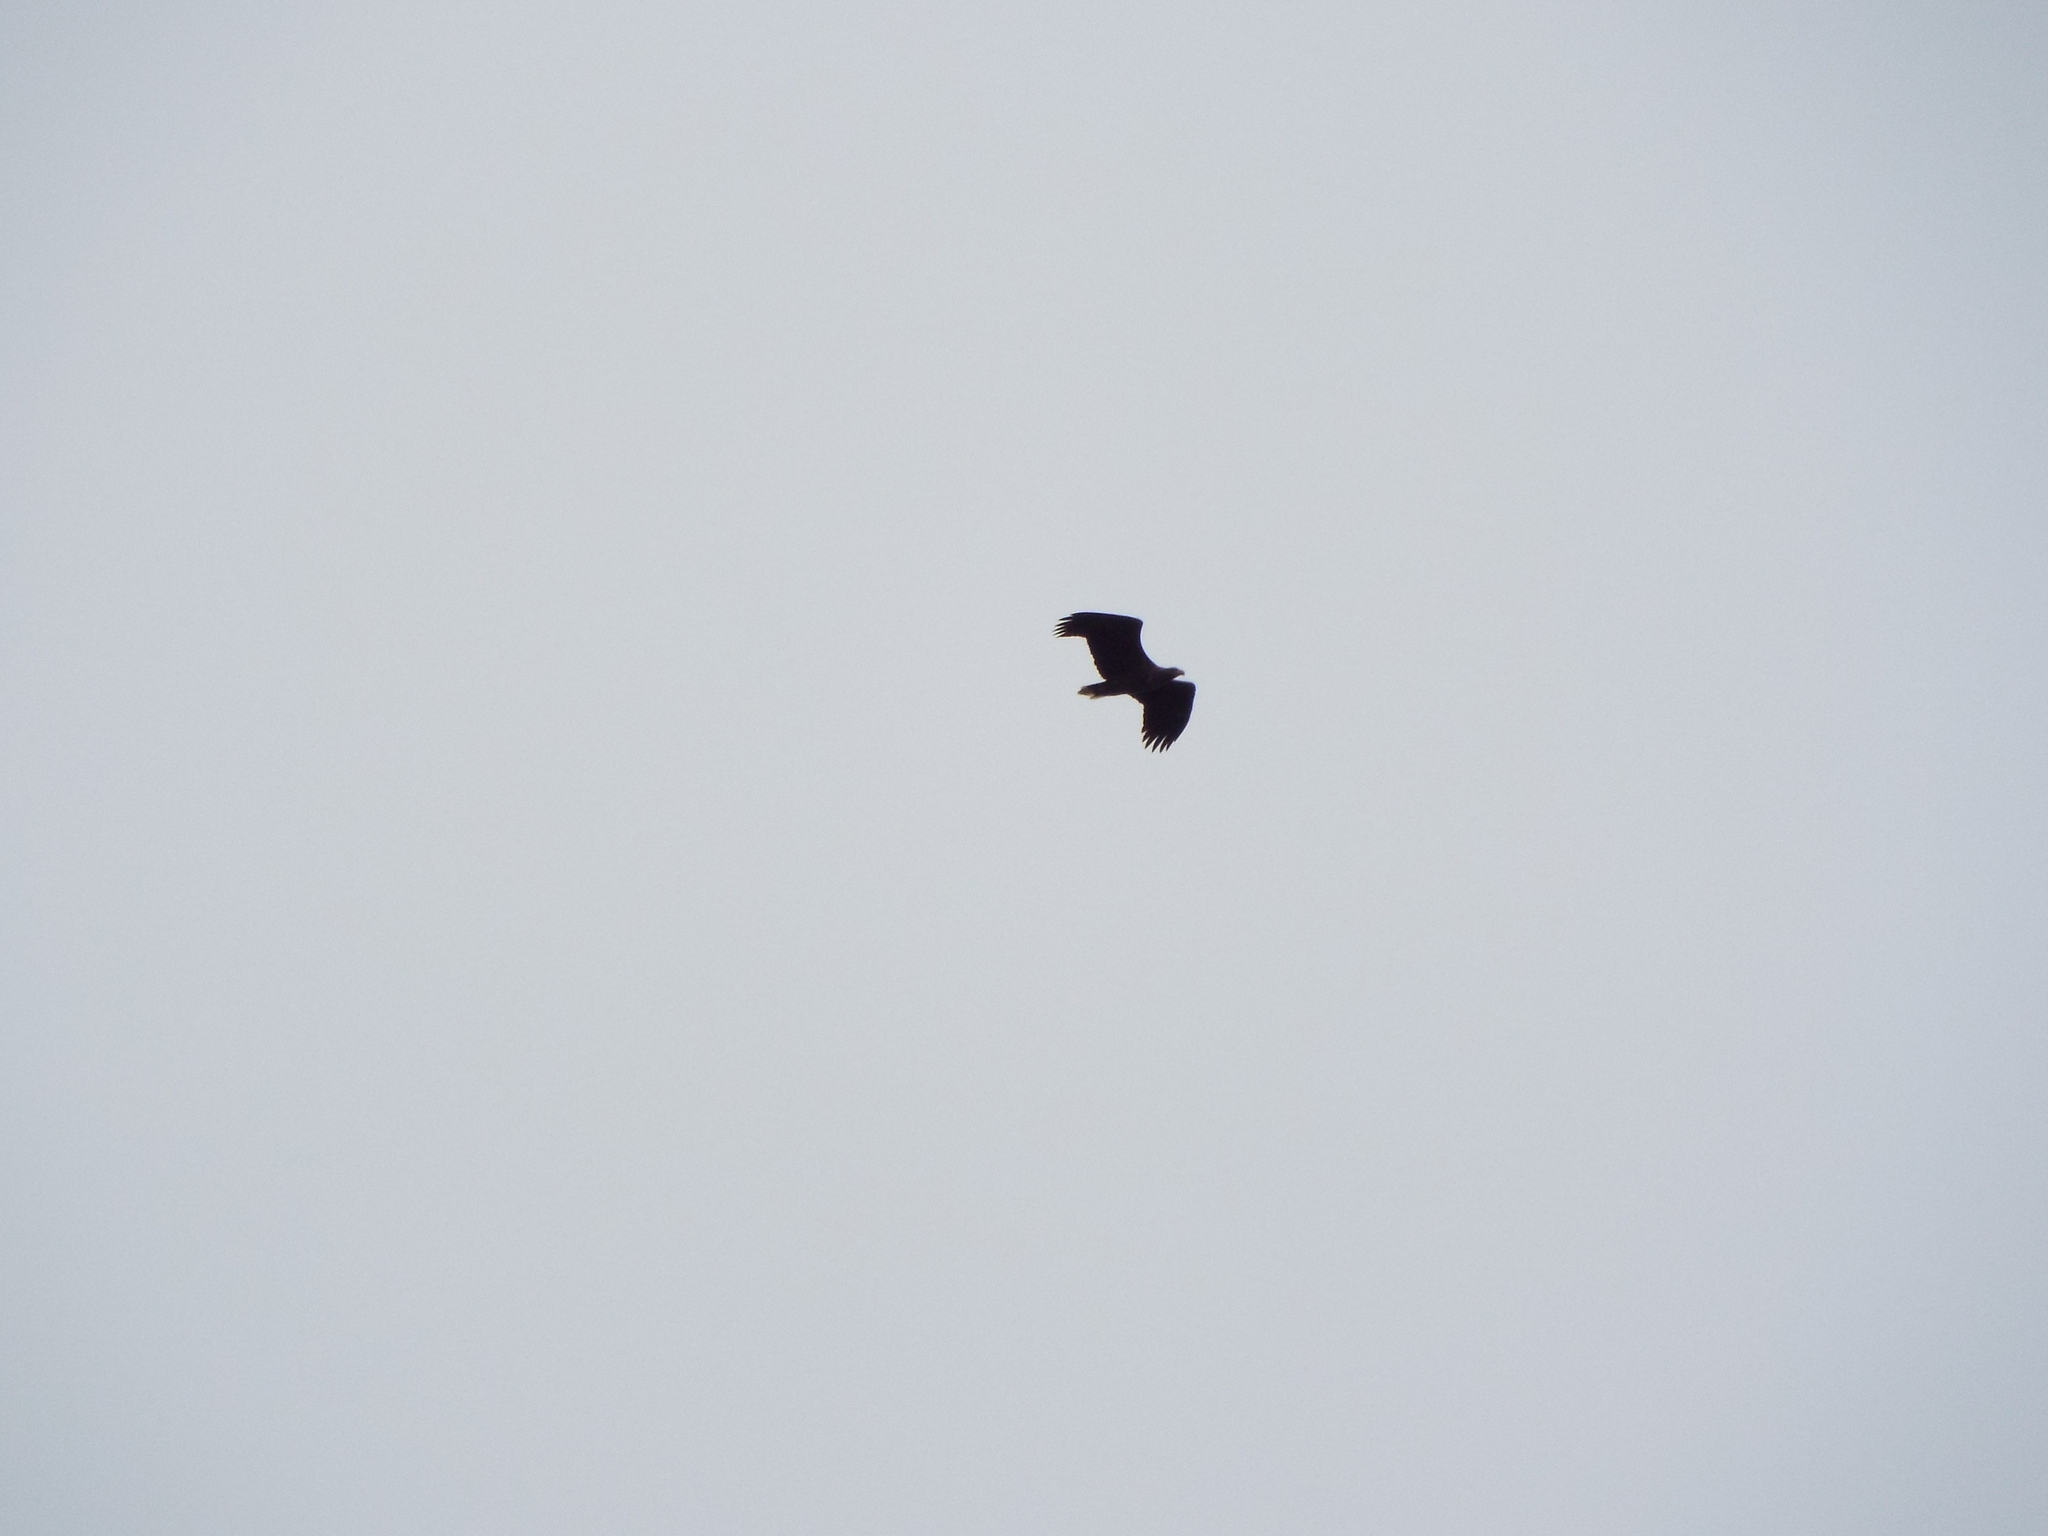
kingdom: Animalia
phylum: Chordata
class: Aves
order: Accipitriformes
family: Accipitridae
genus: Haliaeetus
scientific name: Haliaeetus albicilla
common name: White-tailed eagle
